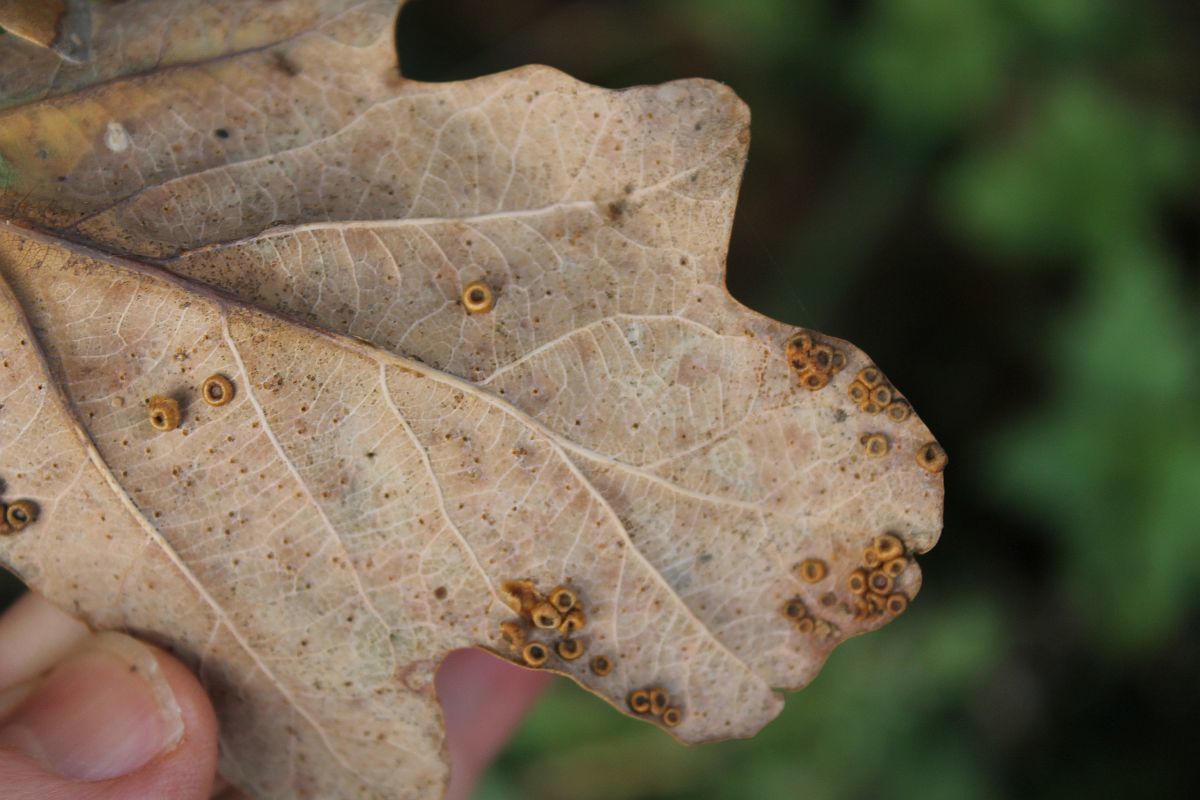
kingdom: Animalia
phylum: Arthropoda
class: Insecta
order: Hymenoptera
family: Cynipidae
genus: Neuroterus
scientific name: Neuroterus numismalis
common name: Silk-button spangle gall
